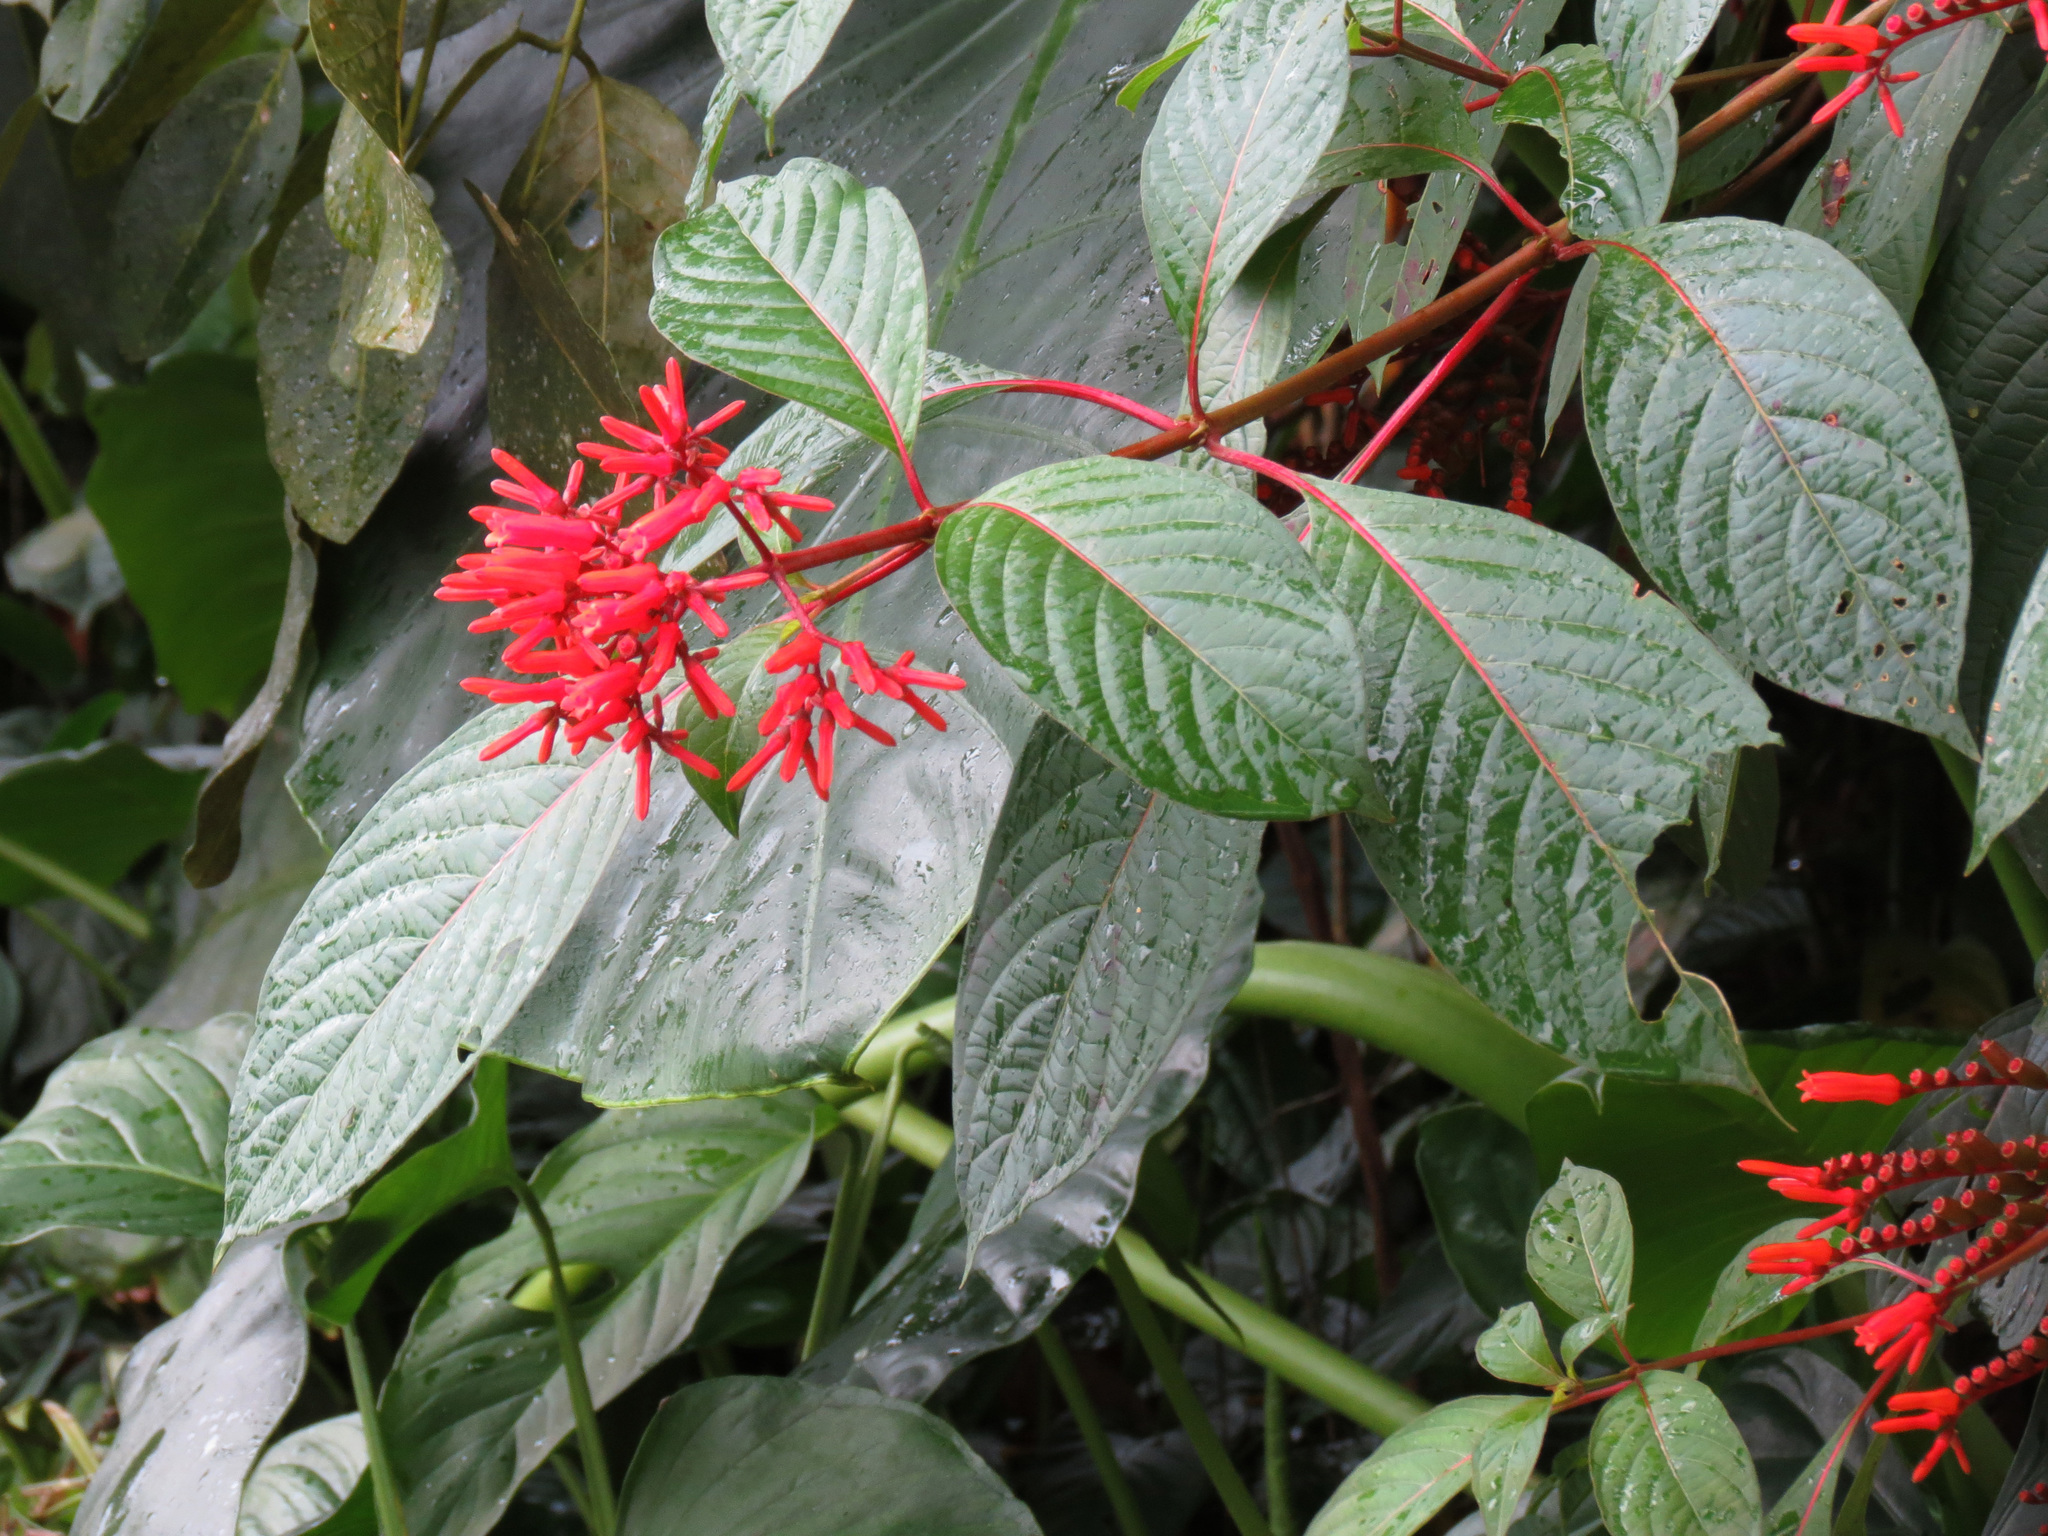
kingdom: Plantae
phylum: Tracheophyta
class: Magnoliopsida
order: Gentianales
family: Rubiaceae
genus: Hamelia
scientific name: Hamelia patens
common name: Redhead
